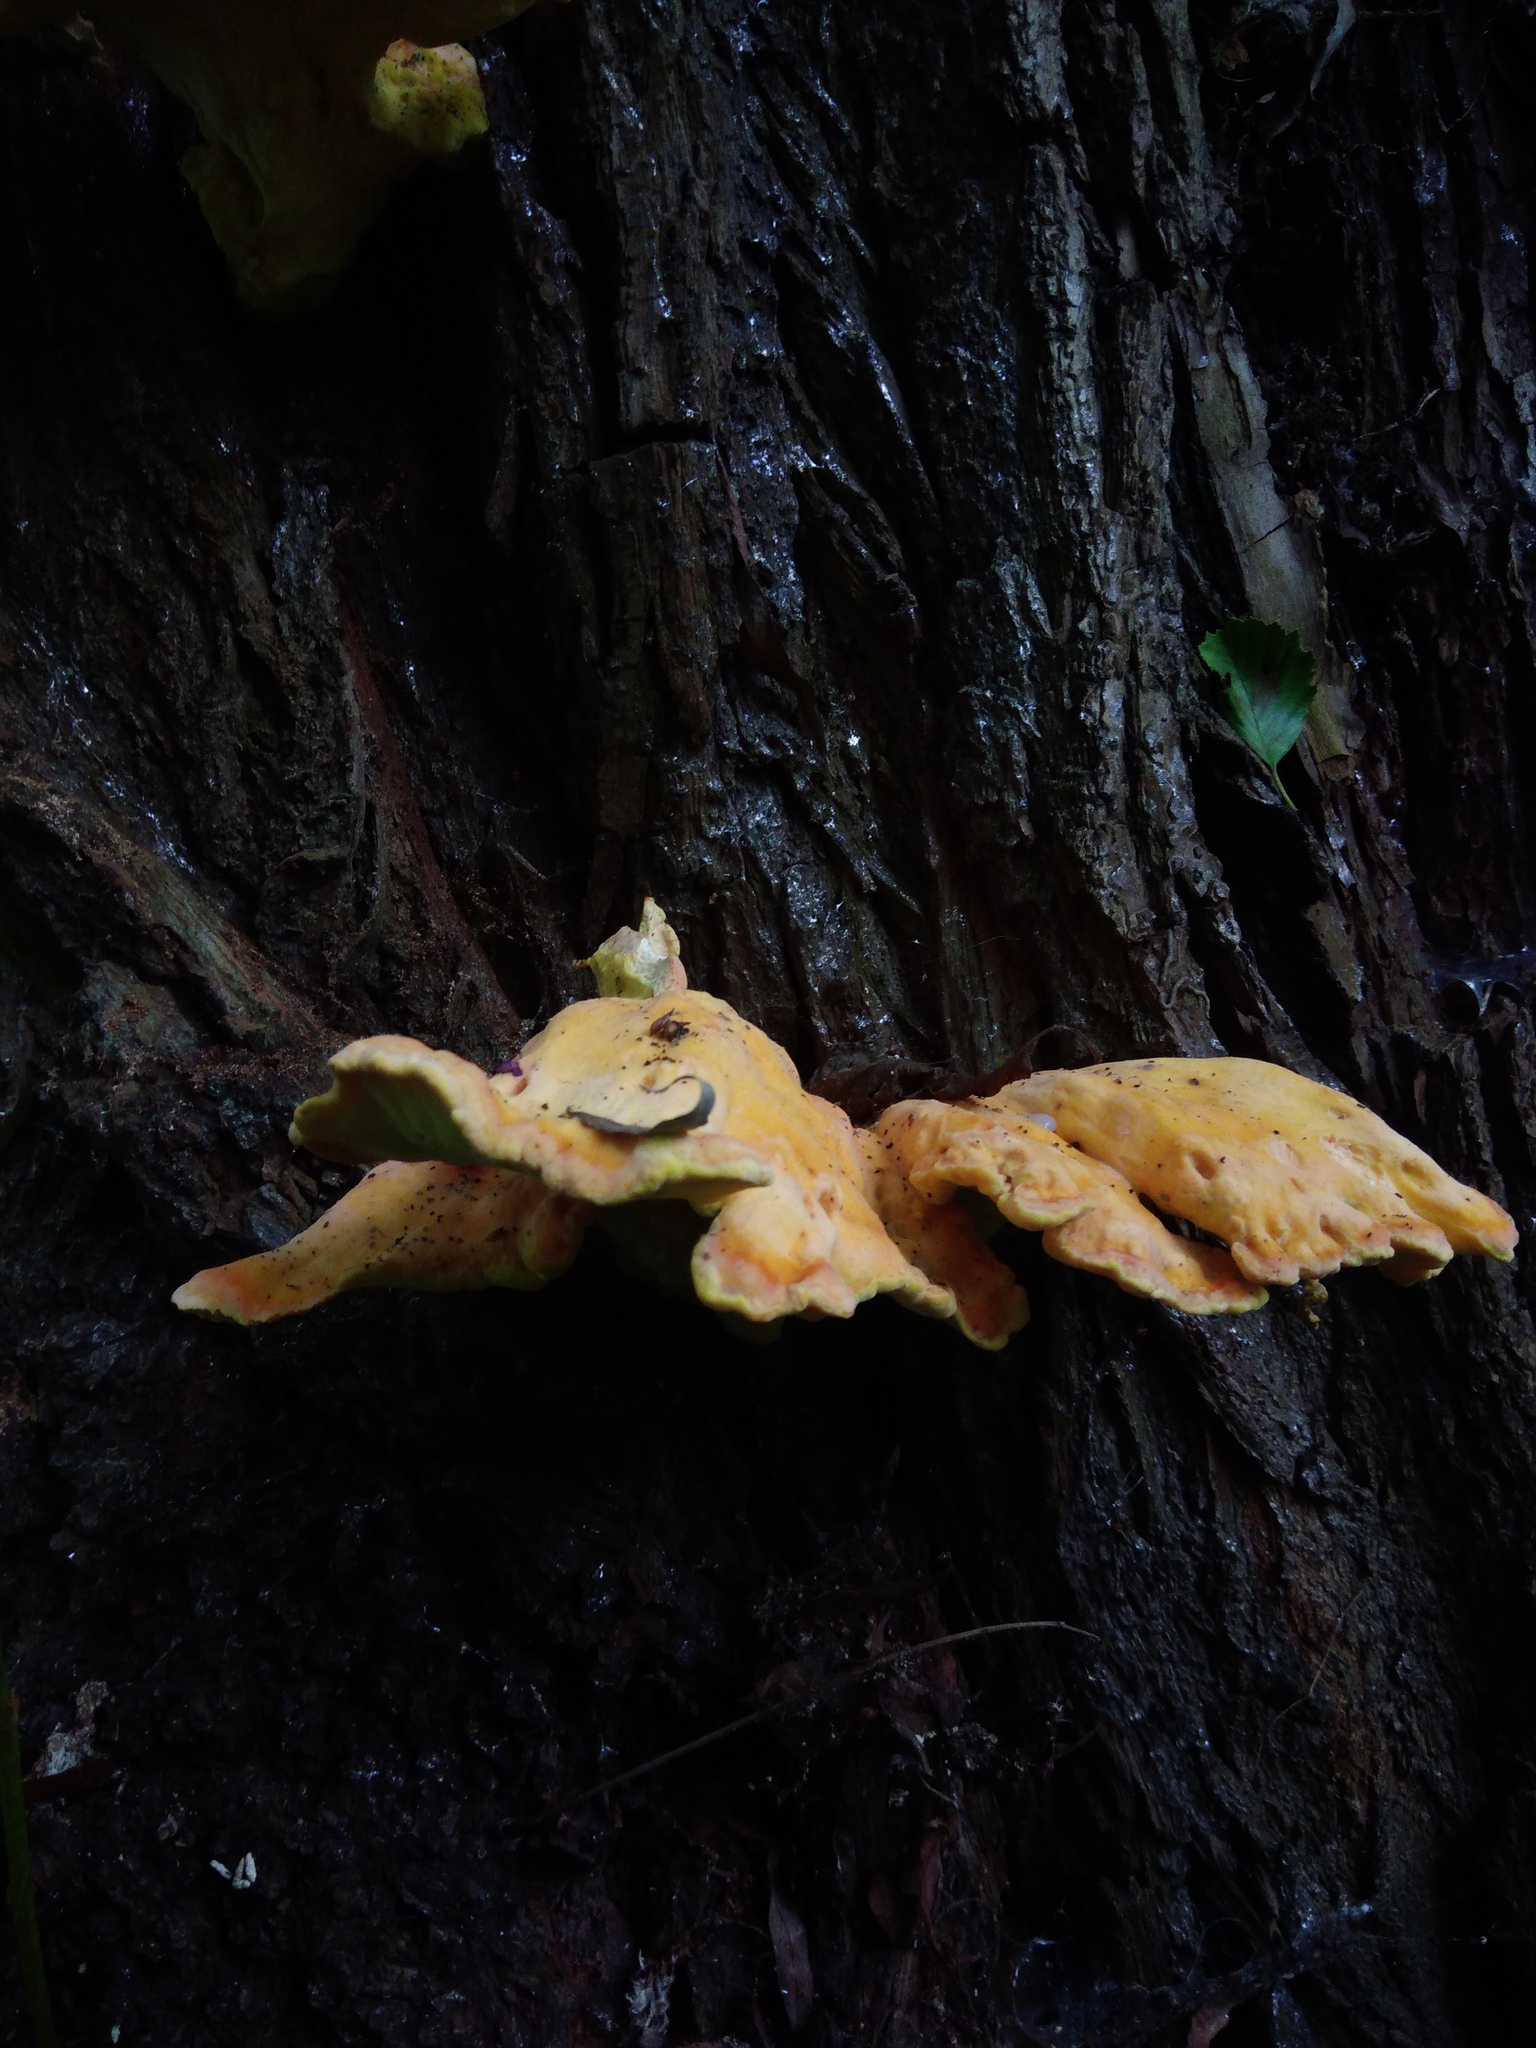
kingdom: Fungi
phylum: Basidiomycota
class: Agaricomycetes
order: Polyporales
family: Laetiporaceae
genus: Laetiporus
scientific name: Laetiporus sulphureus
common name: Chicken of the woods
